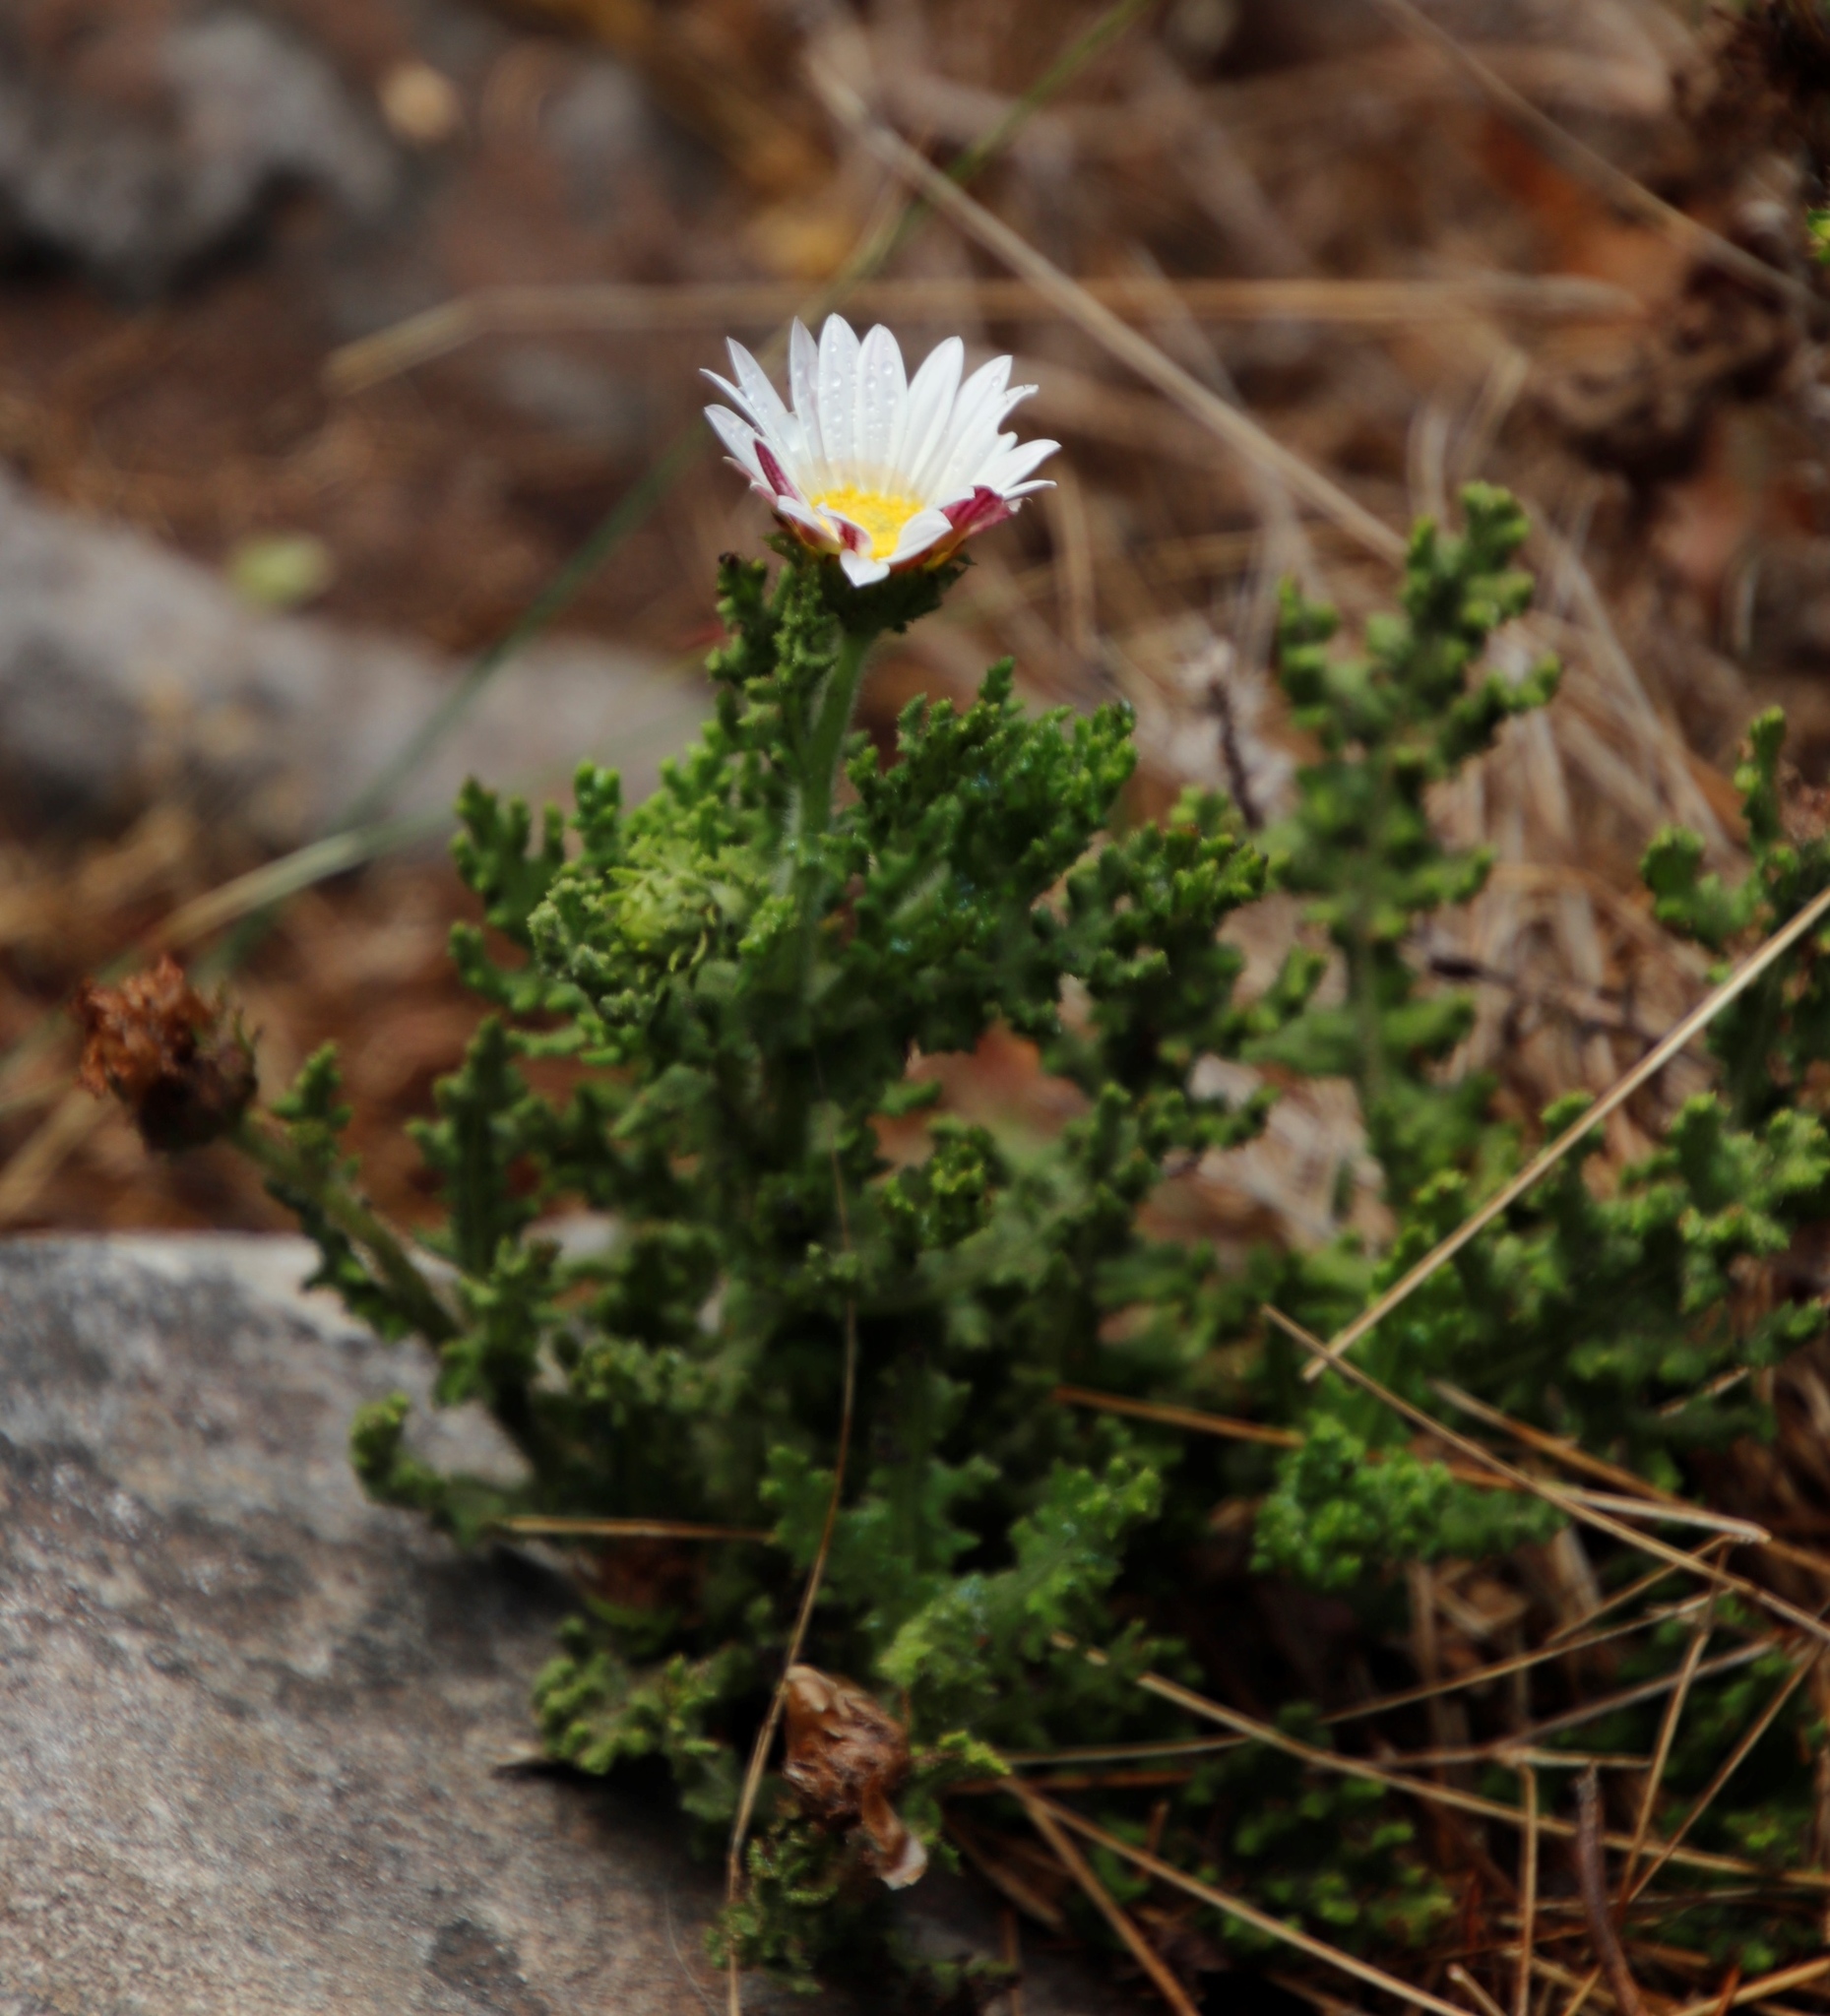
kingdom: Plantae
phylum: Tracheophyta
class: Magnoliopsida
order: Asterales
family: Asteraceae
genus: Arctotis
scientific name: Arctotis aspera
